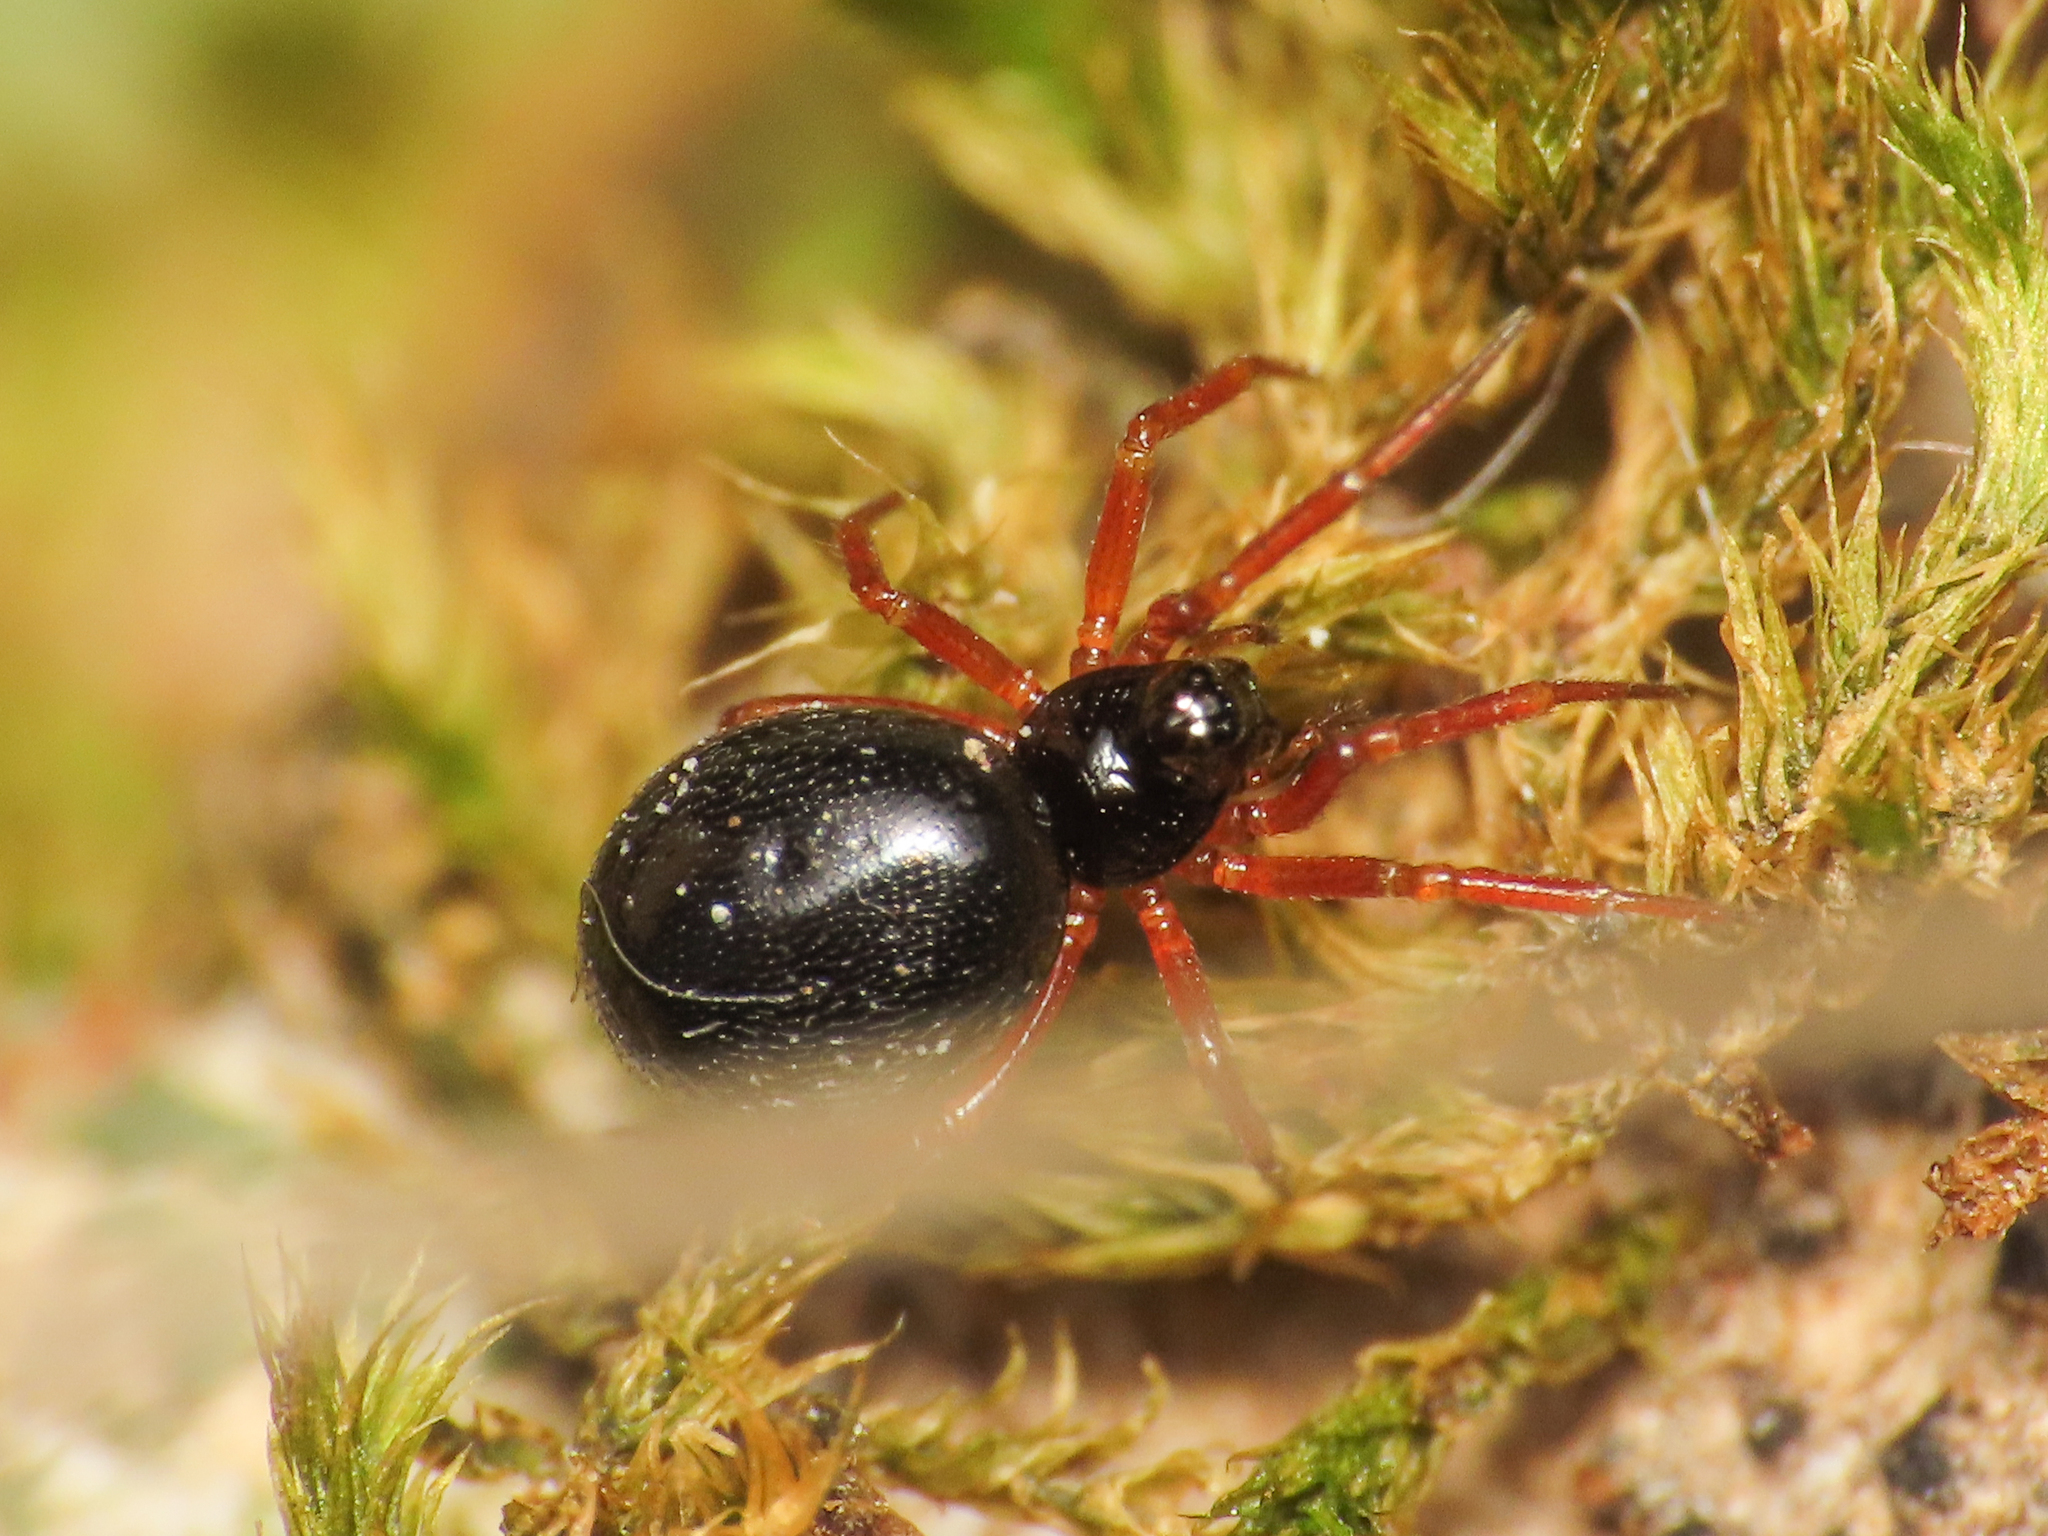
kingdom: Animalia
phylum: Arthropoda
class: Arachnida
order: Araneae
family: Linyphiidae
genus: Pelecopsis
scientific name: Pelecopsis elongata
